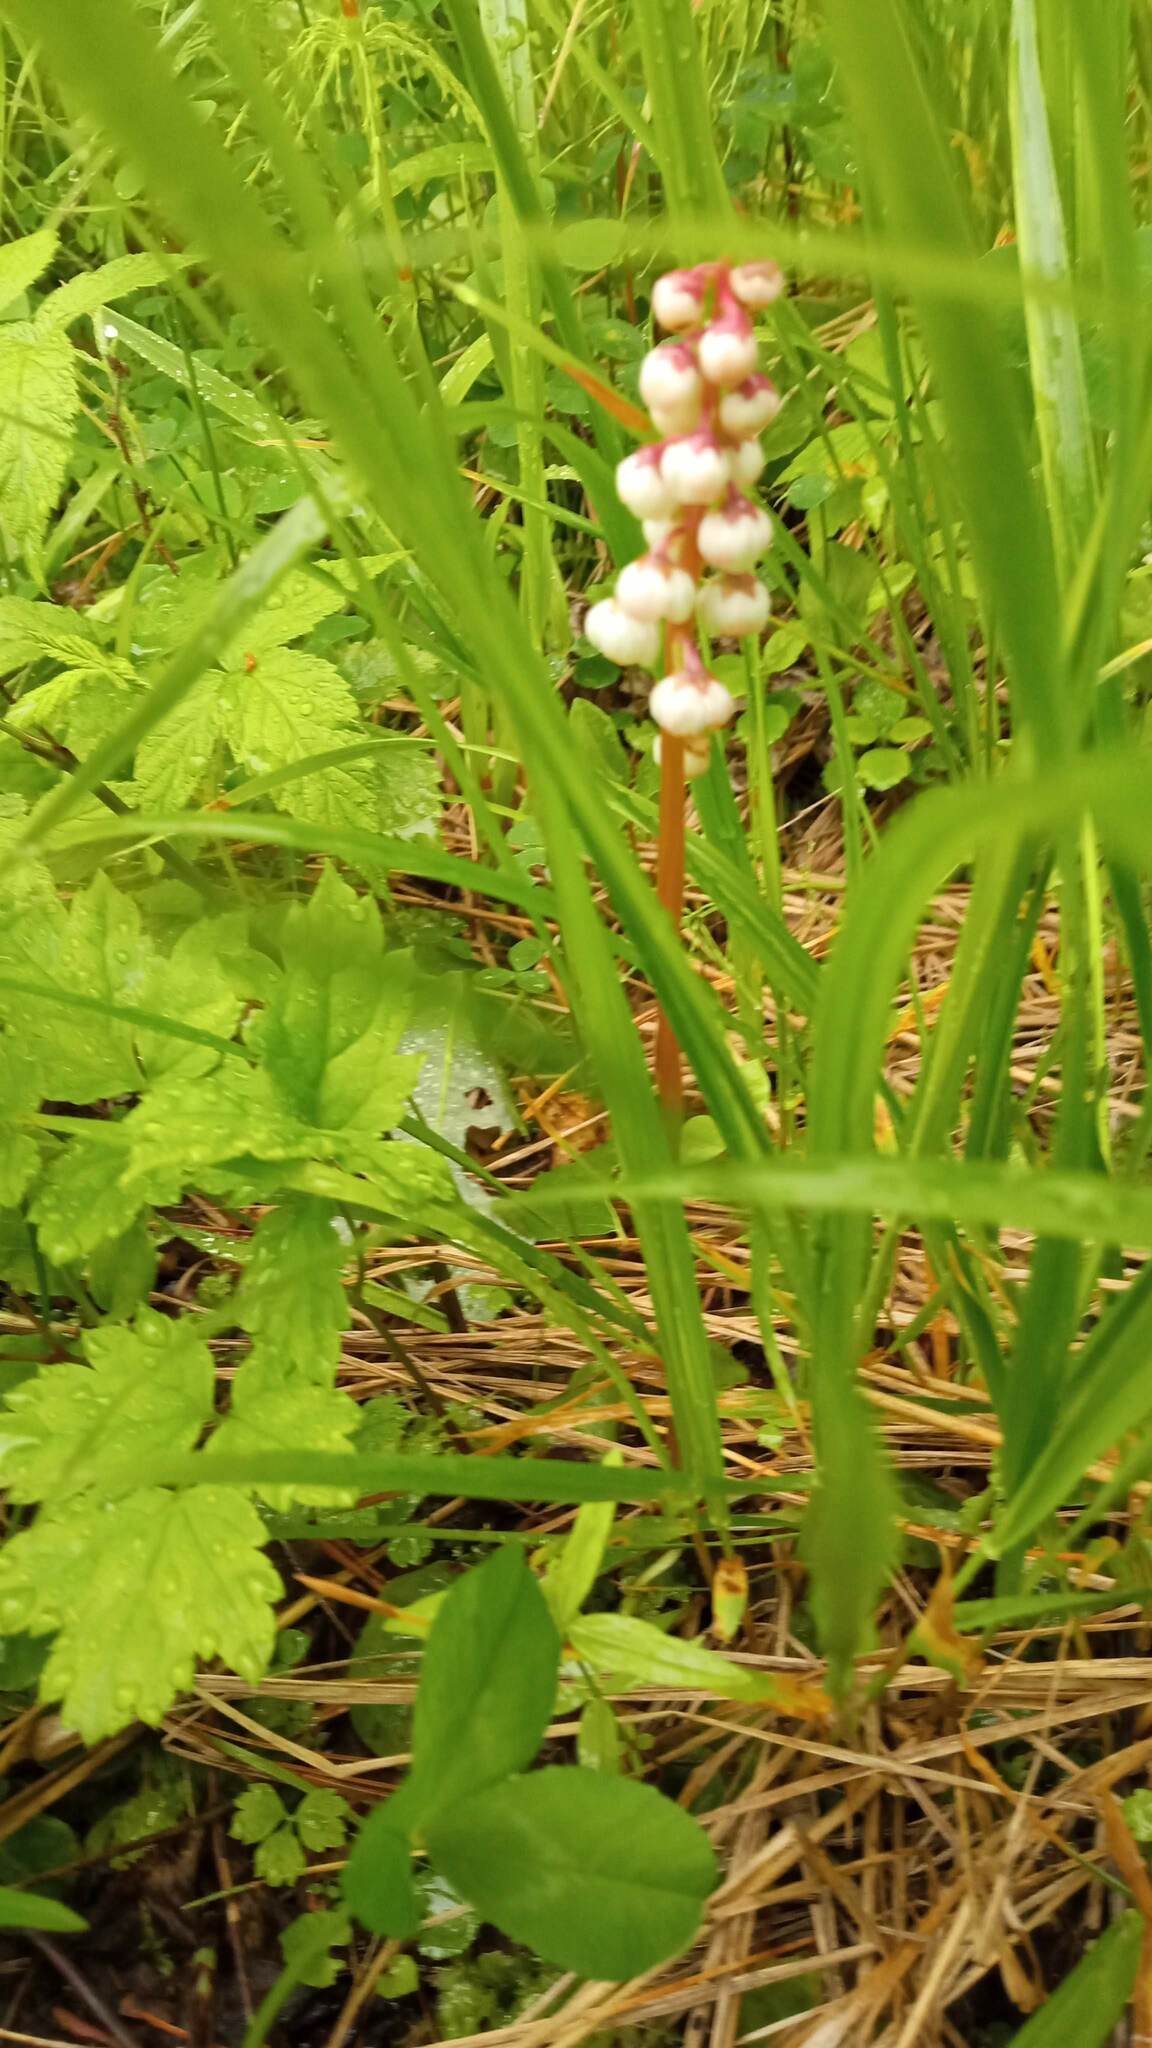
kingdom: Plantae
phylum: Tracheophyta
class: Magnoliopsida
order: Ericales
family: Ericaceae
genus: Pyrola
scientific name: Pyrola minor
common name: Common wintergreen
